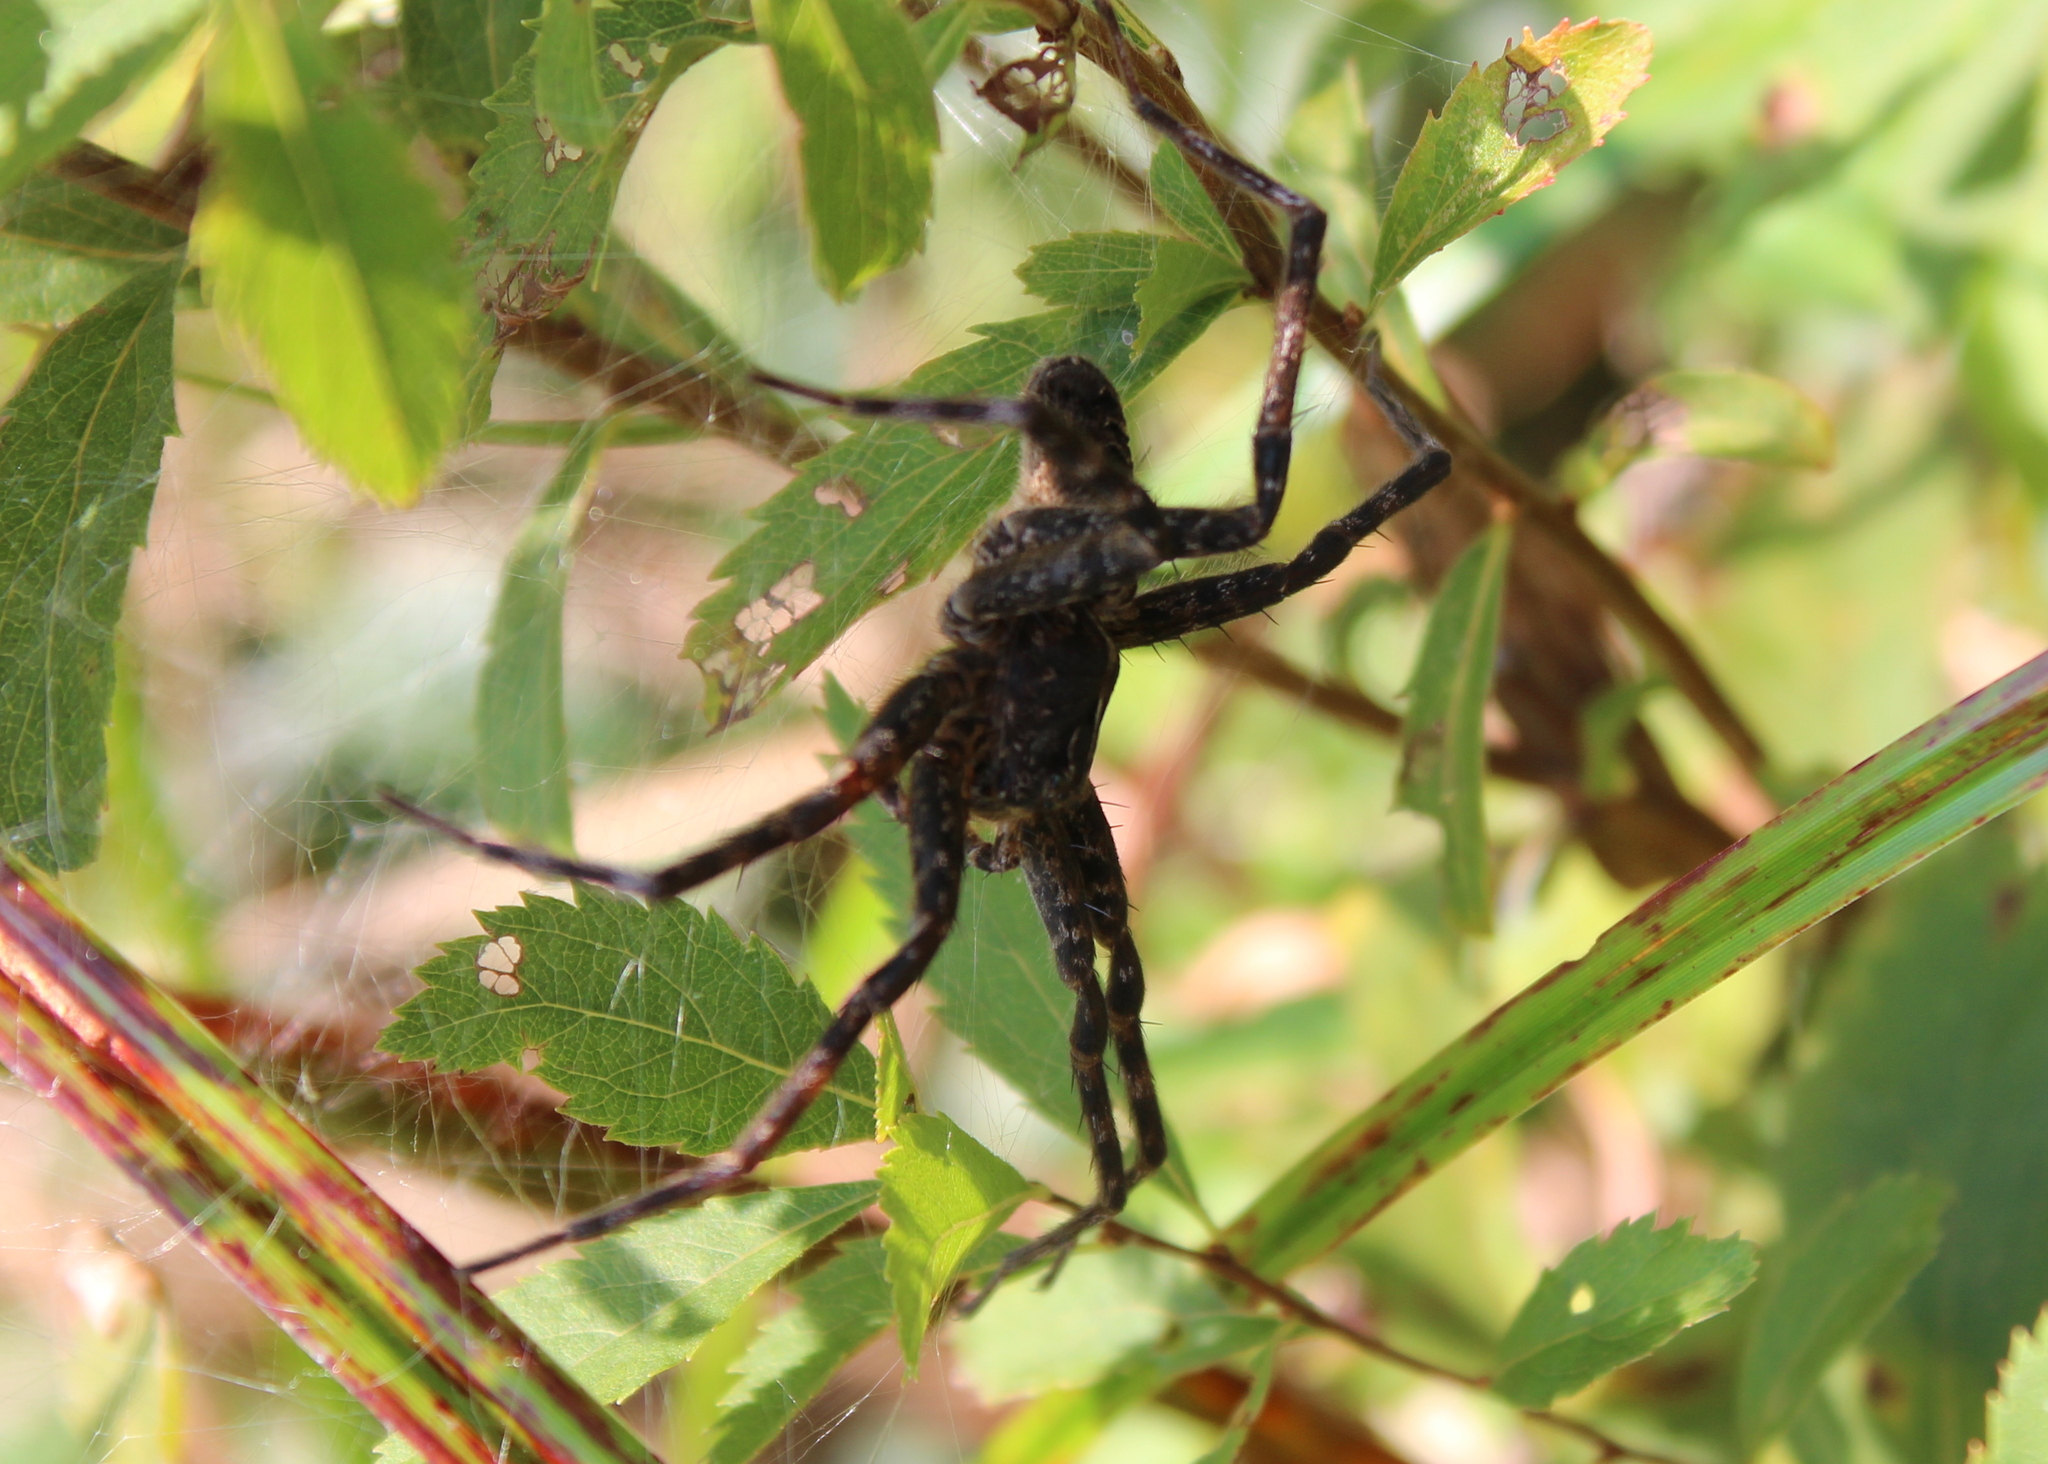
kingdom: Animalia
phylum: Arthropoda
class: Arachnida
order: Araneae
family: Pisauridae
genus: Dolomedes
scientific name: Dolomedes scriptus
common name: Striped fishing spider
